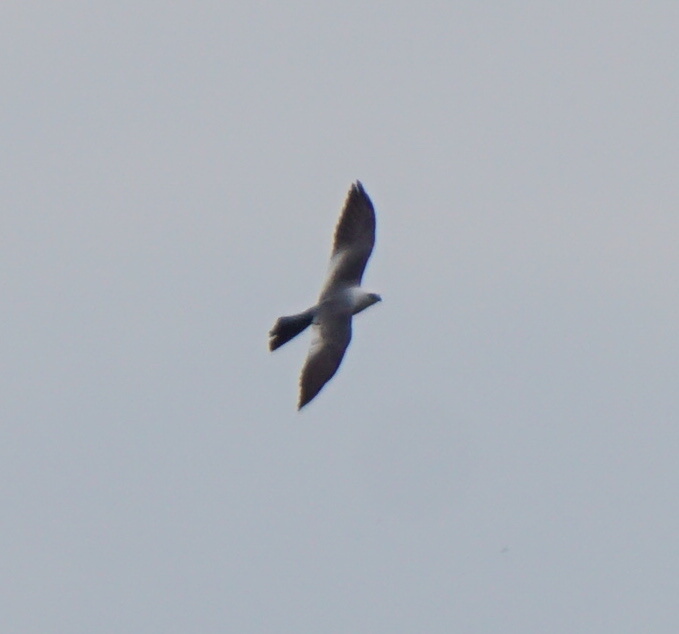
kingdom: Animalia
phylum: Chordata
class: Aves
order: Accipitriformes
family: Accipitridae
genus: Ictinia
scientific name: Ictinia mississippiensis
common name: Mississippi kite
